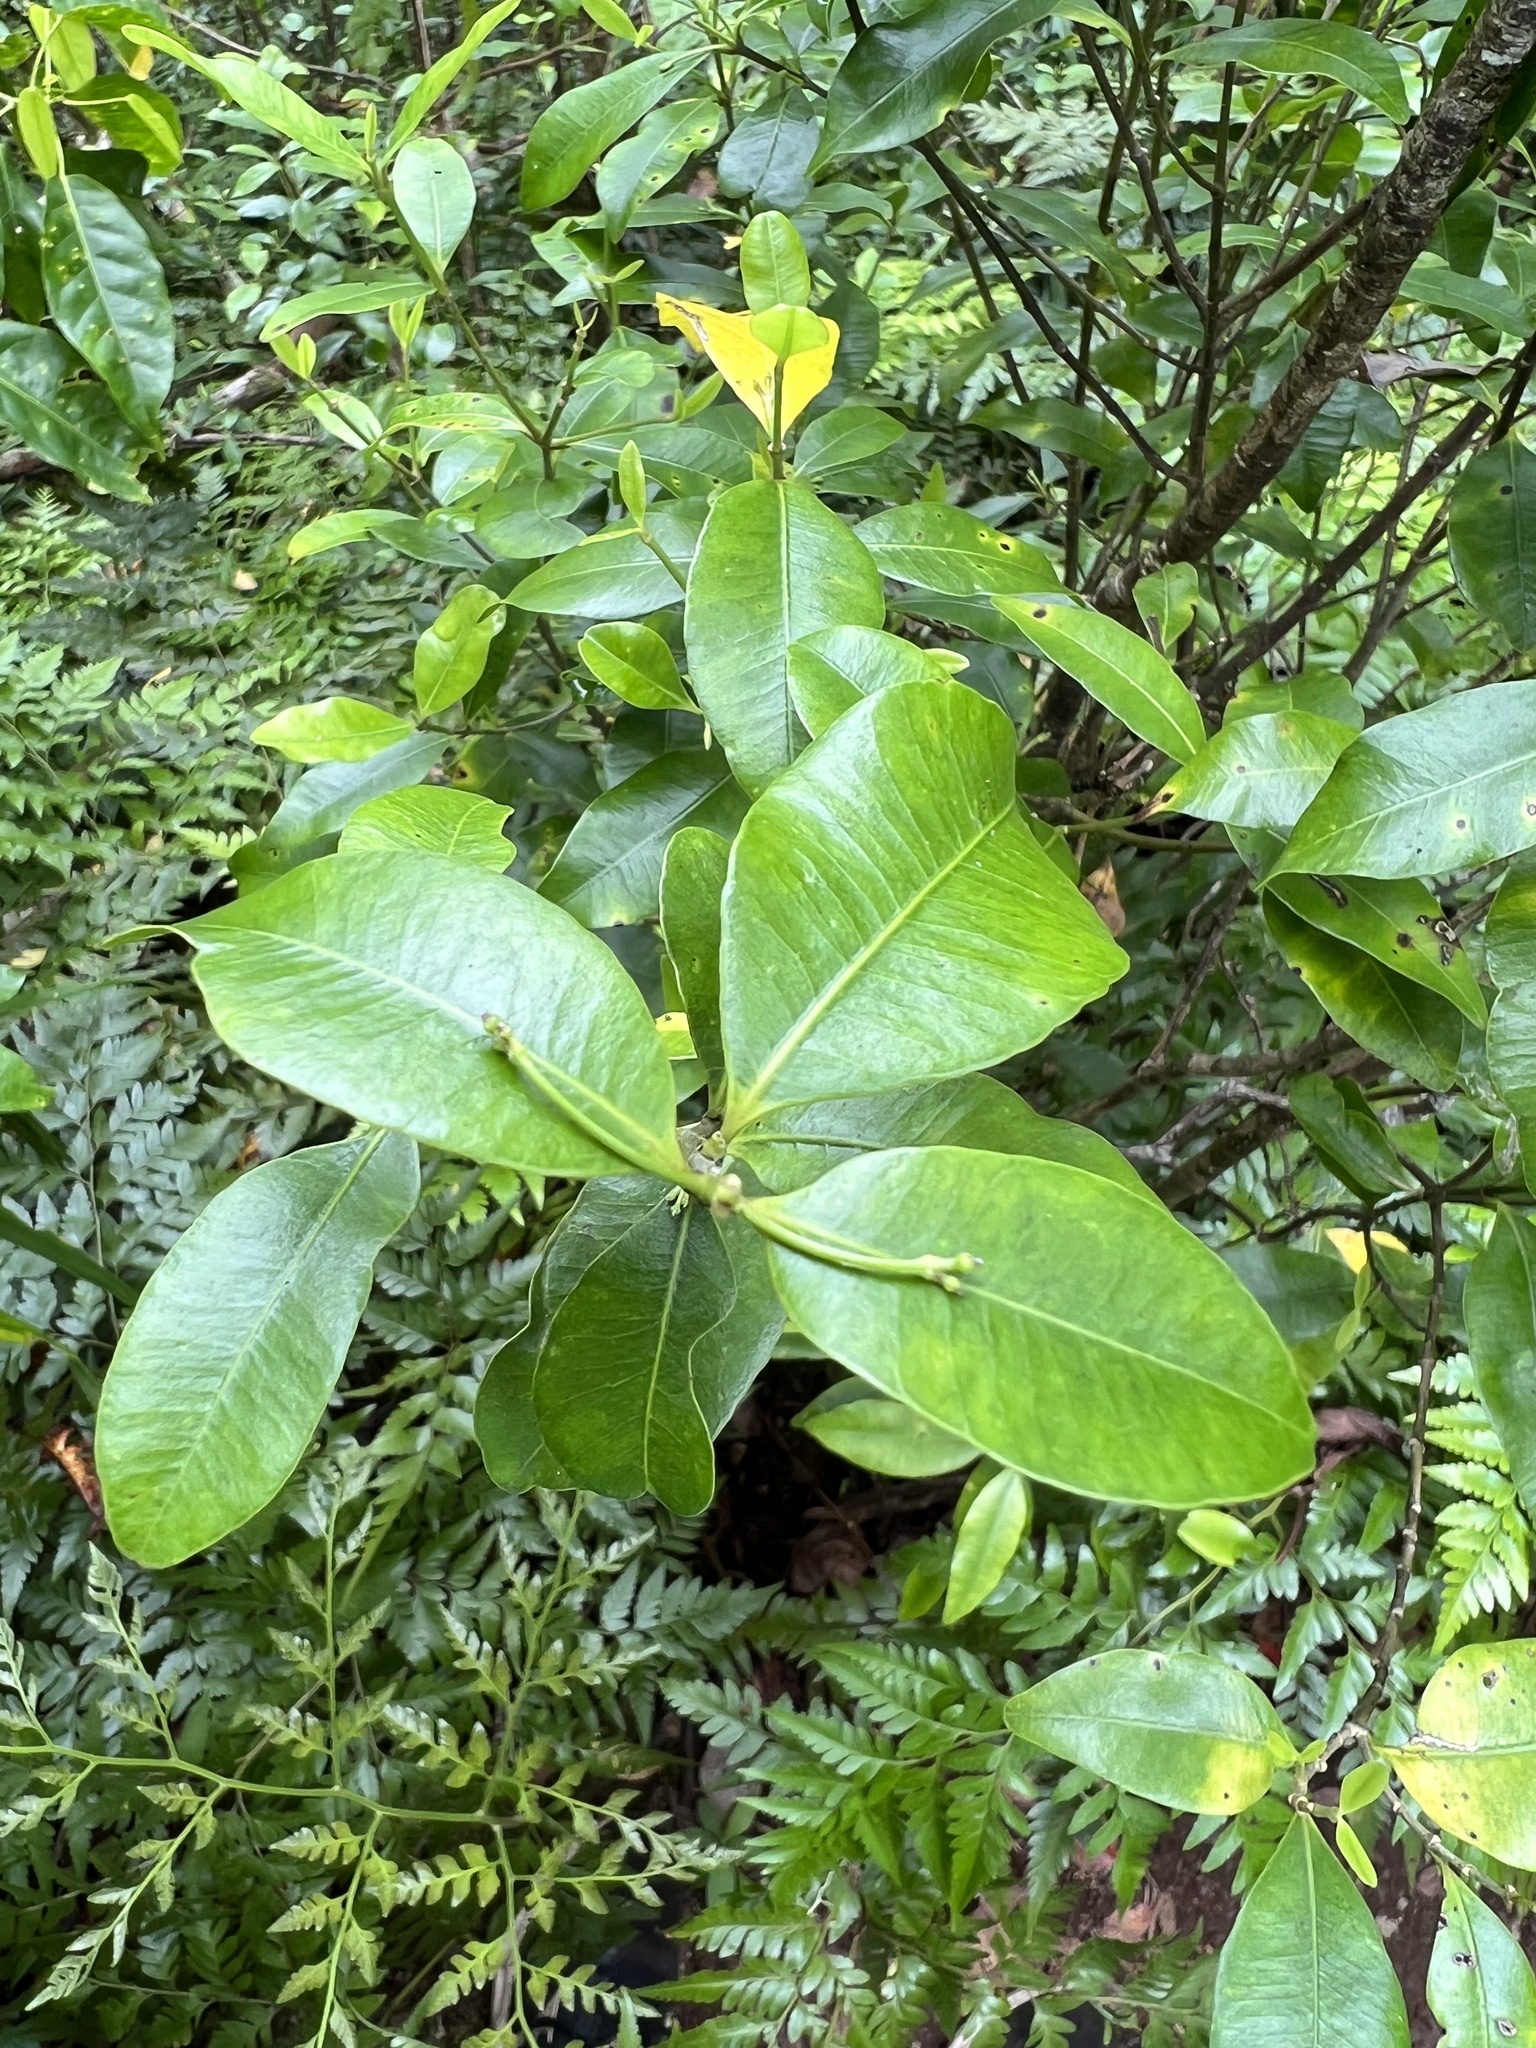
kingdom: Plantae
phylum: Tracheophyta
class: Magnoliopsida
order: Gentianales
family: Apocynaceae
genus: Alyxia
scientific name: Alyxia stellata
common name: Maile
